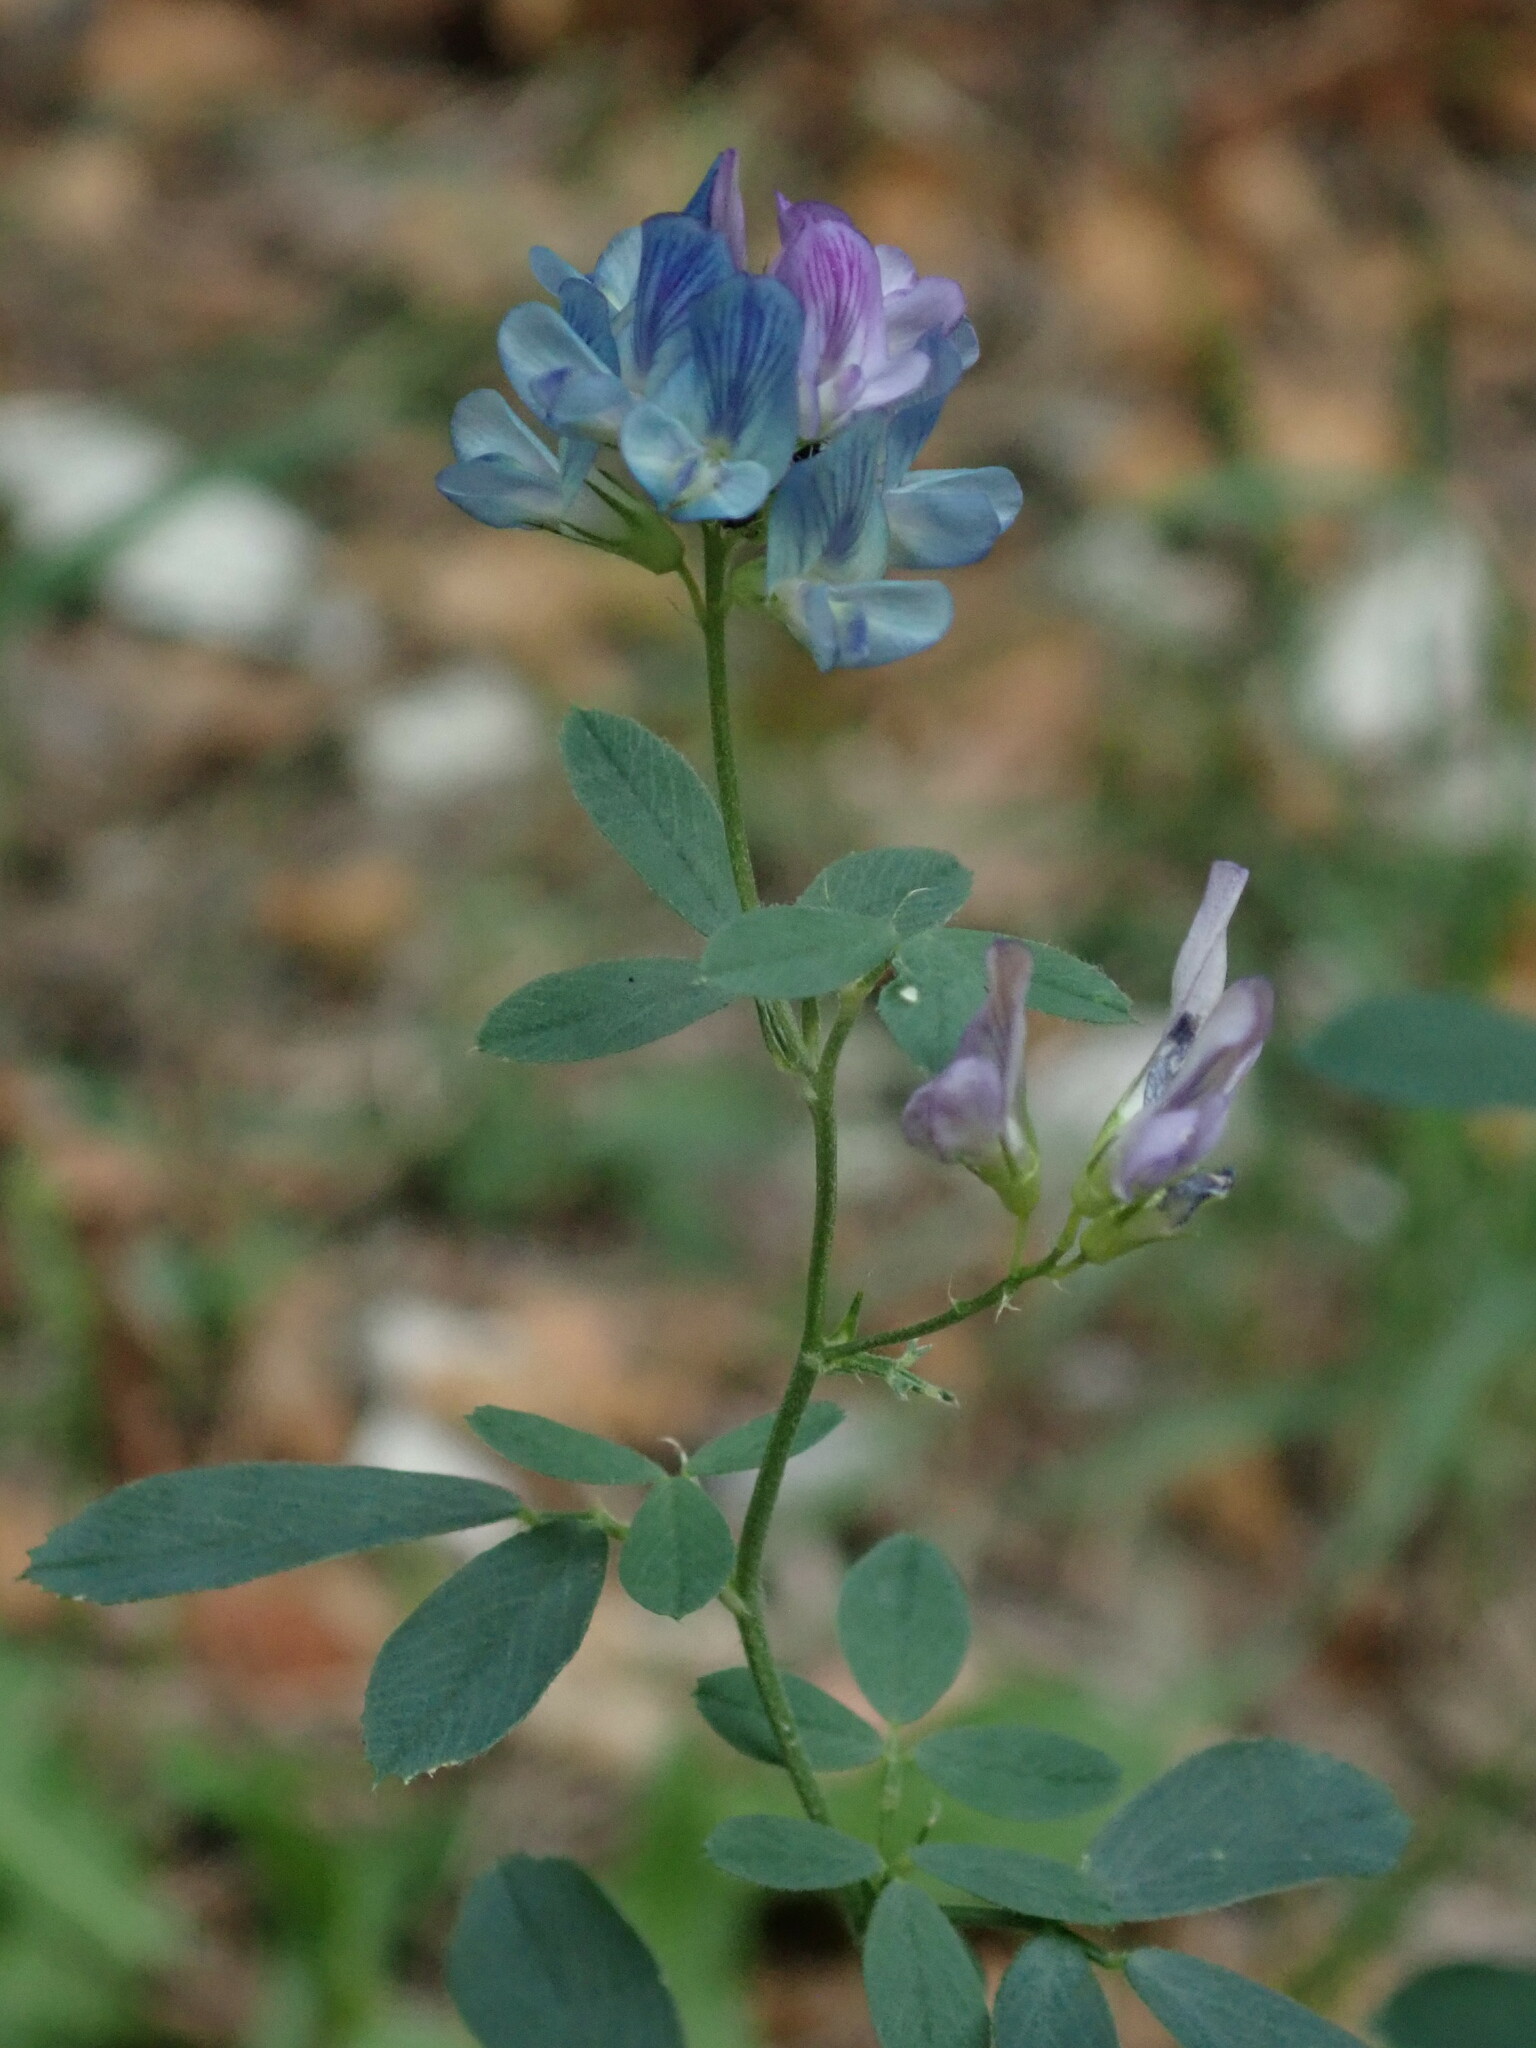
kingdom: Plantae
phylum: Tracheophyta
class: Magnoliopsida
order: Fabales
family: Fabaceae
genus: Medicago
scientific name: Medicago sativa
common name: Alfalfa
